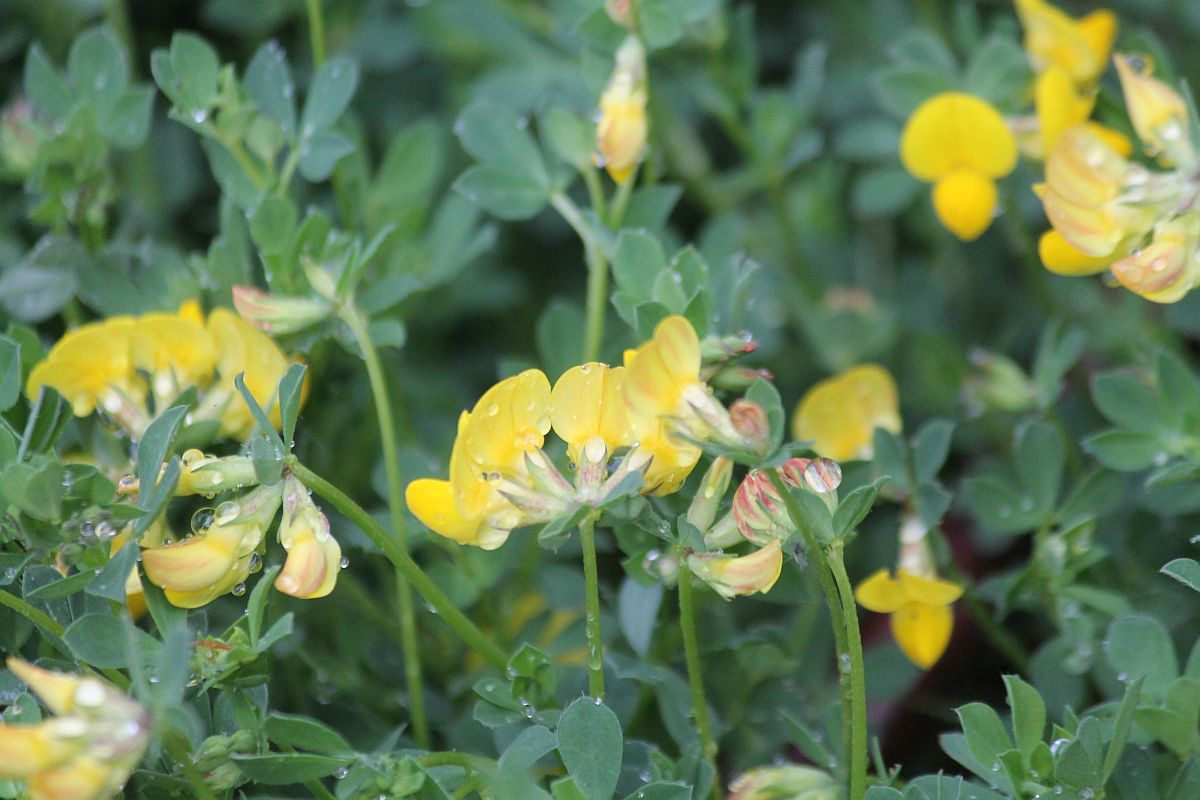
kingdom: Plantae
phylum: Tracheophyta
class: Magnoliopsida
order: Fabales
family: Fabaceae
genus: Lotus
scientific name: Lotus corniculatus
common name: Common bird's-foot-trefoil
